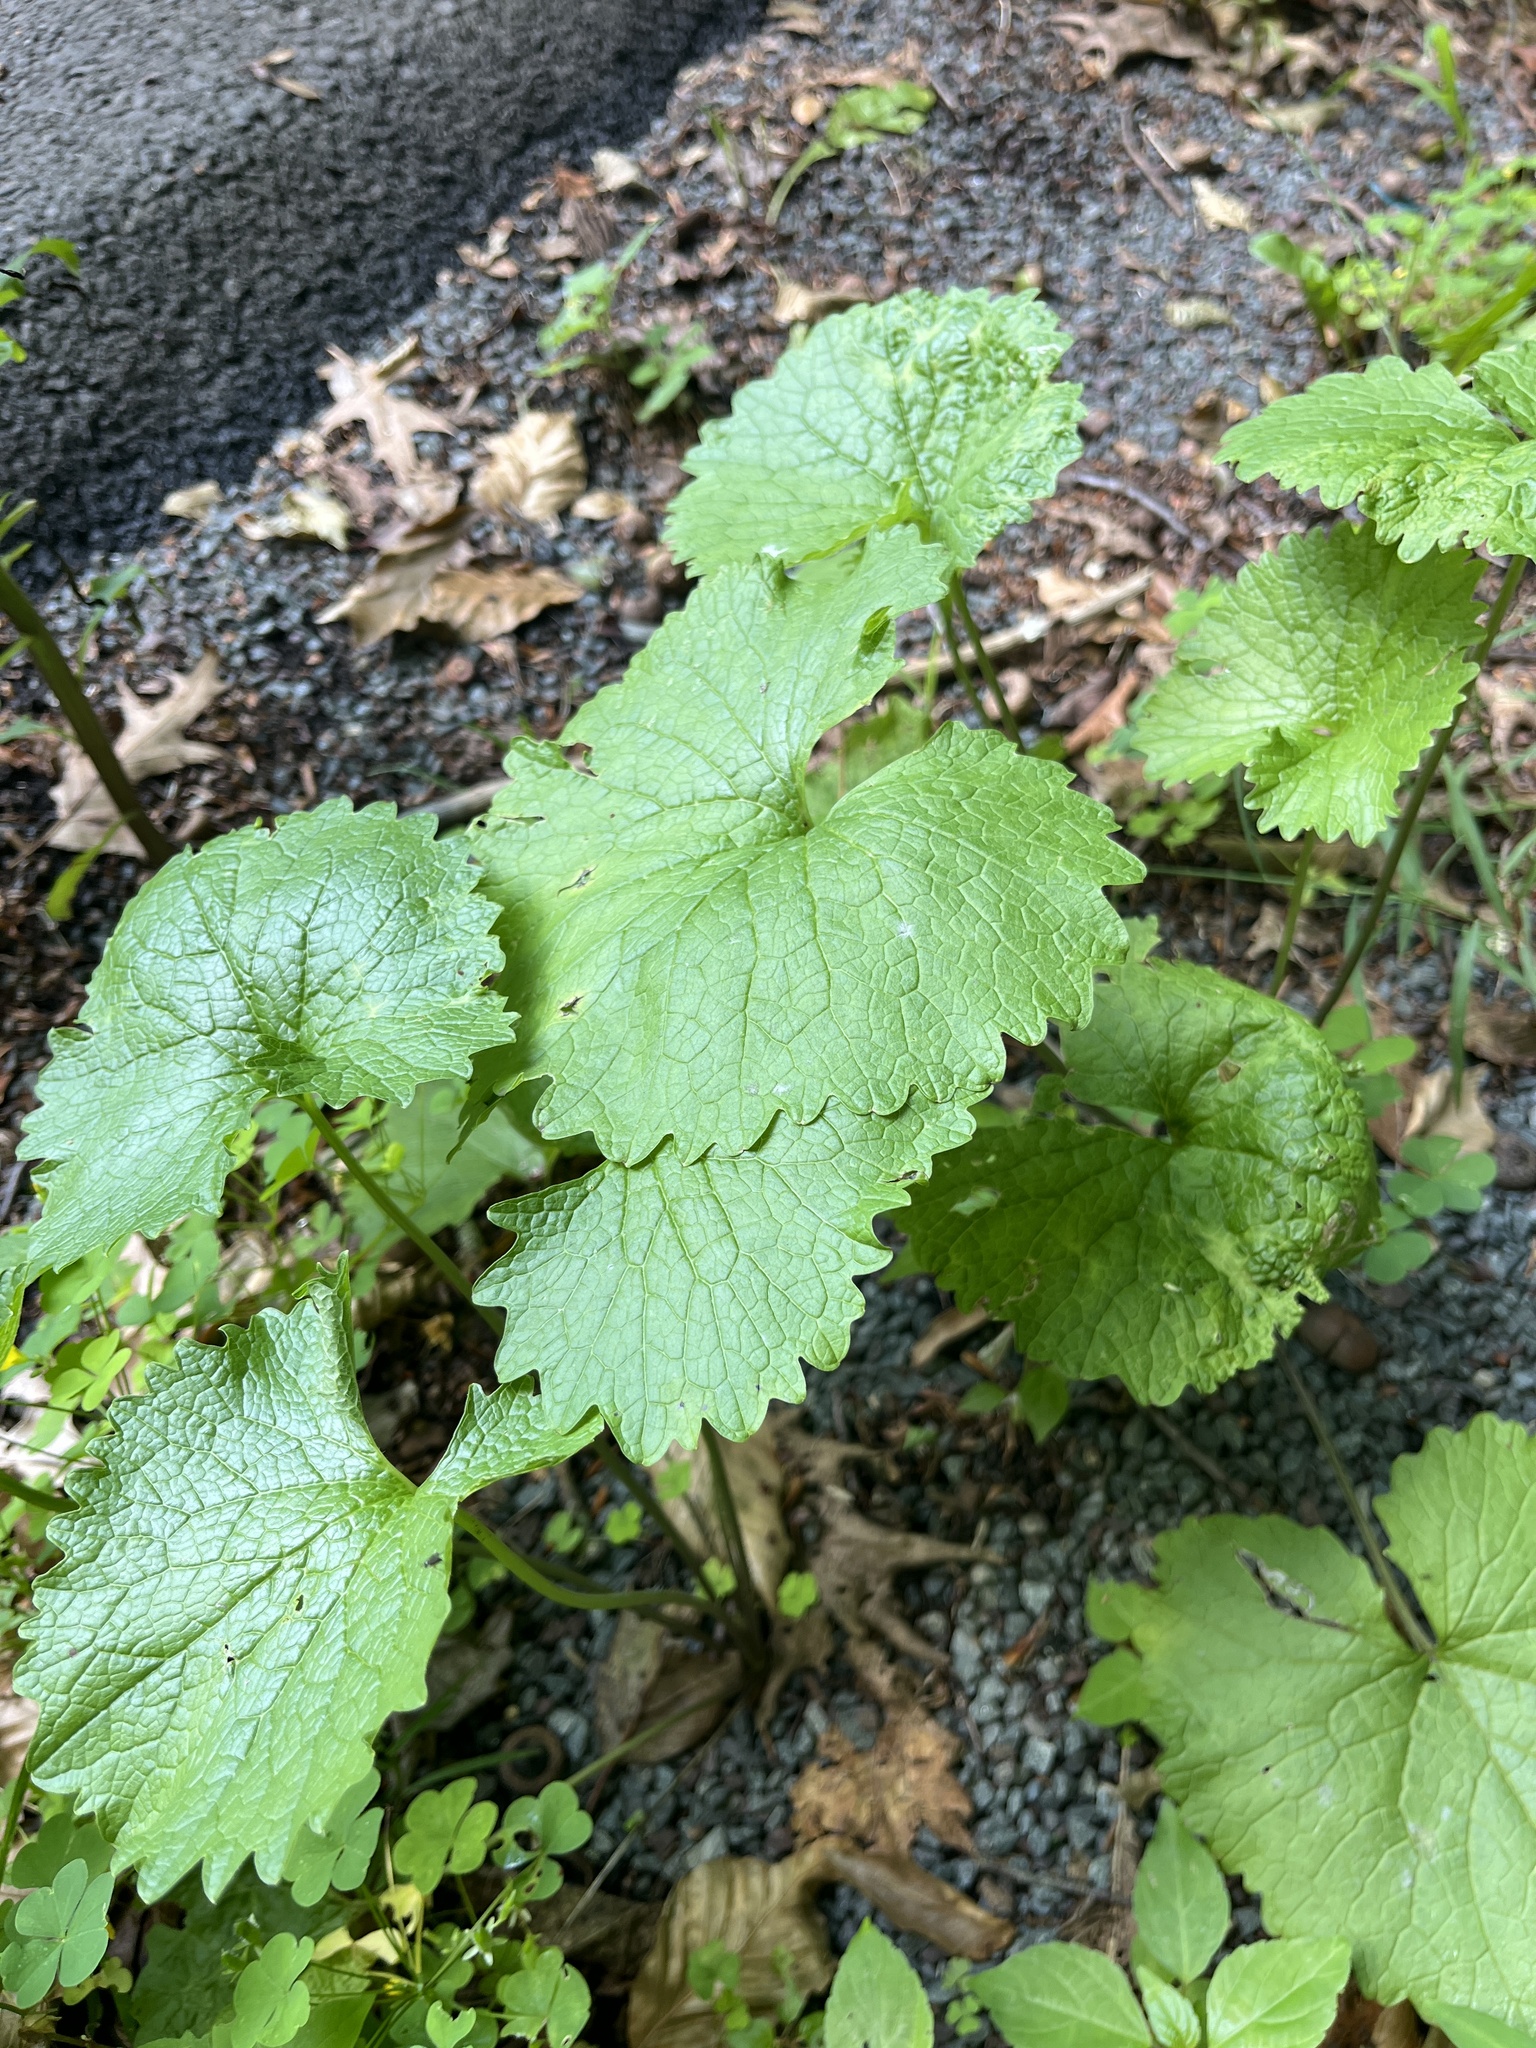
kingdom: Plantae
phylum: Tracheophyta
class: Magnoliopsida
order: Brassicales
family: Brassicaceae
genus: Alliaria
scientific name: Alliaria petiolata
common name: Garlic mustard
